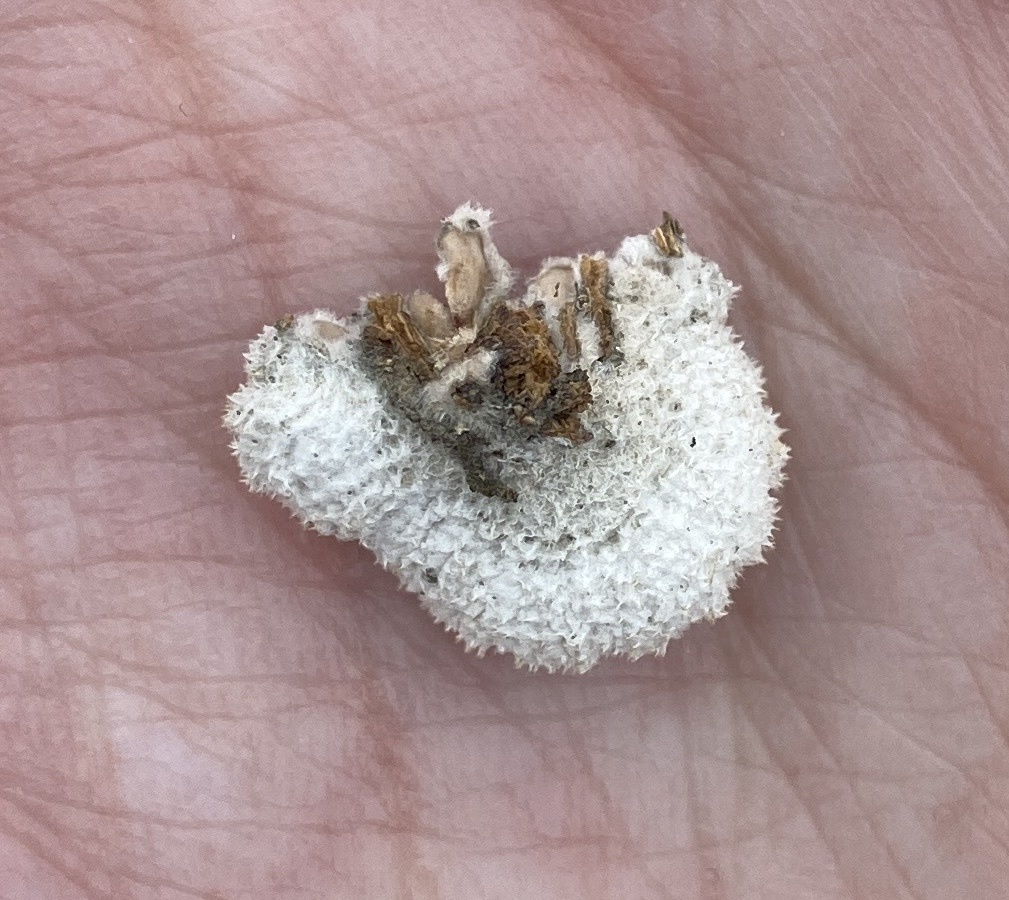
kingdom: Fungi
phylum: Basidiomycota
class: Agaricomycetes
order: Agaricales
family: Schizophyllaceae
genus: Schizophyllum
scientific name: Schizophyllum commune
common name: Common porecrust
